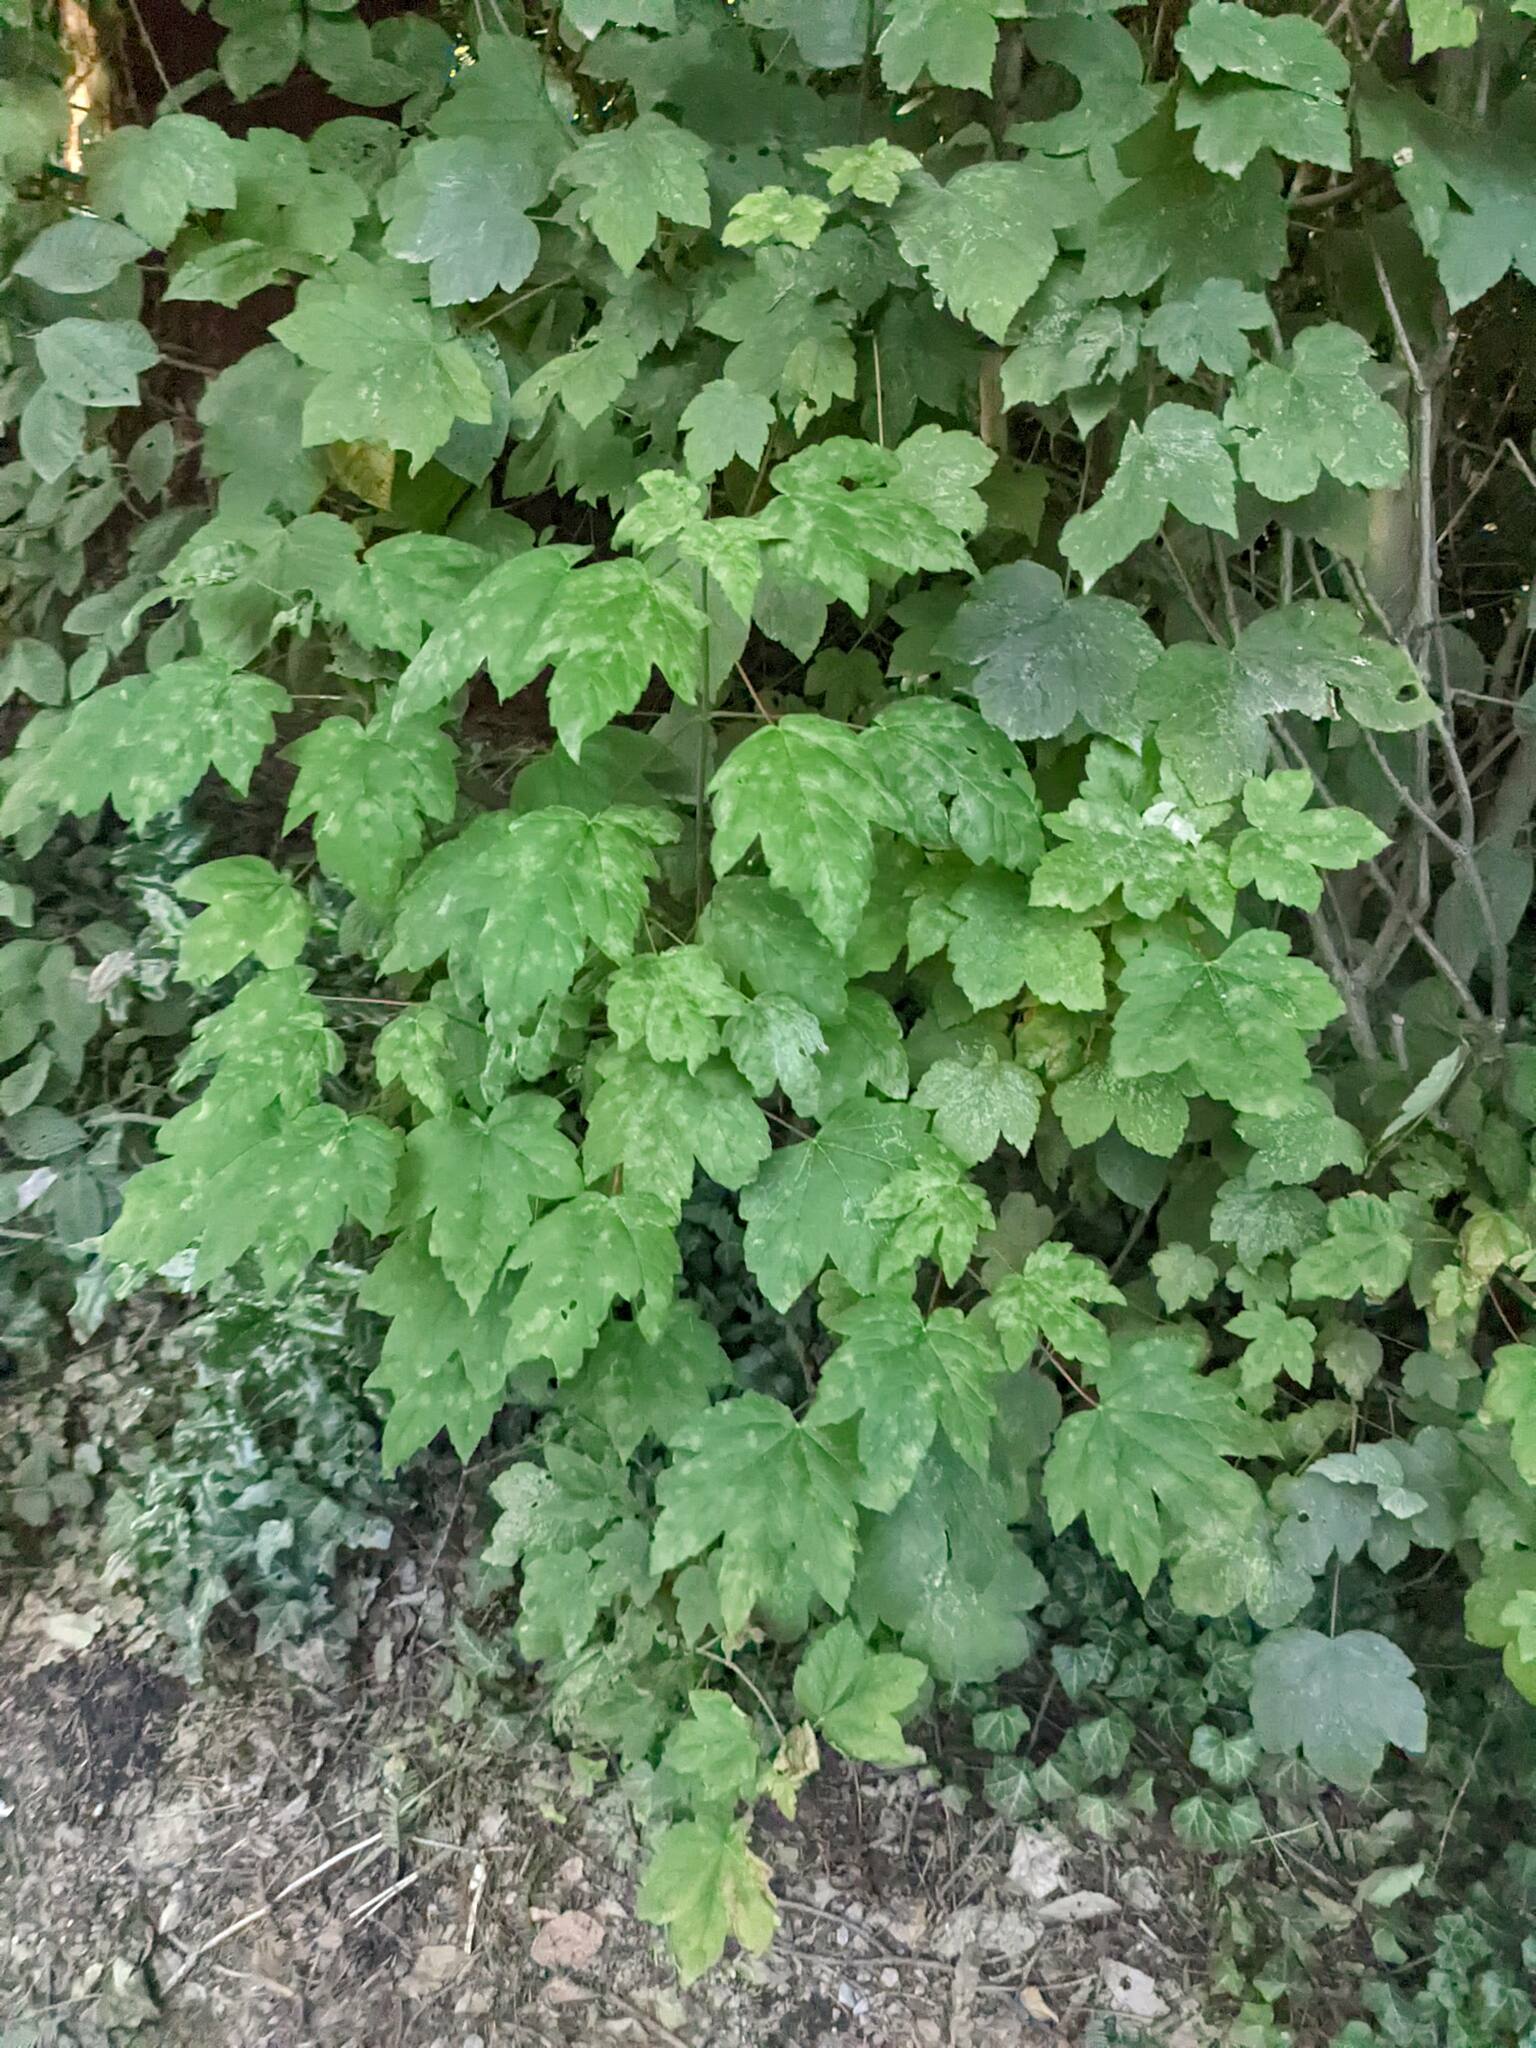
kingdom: Plantae
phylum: Tracheophyta
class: Magnoliopsida
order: Sapindales
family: Sapindaceae
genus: Acer
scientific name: Acer pseudoplatanus
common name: Sycamore
